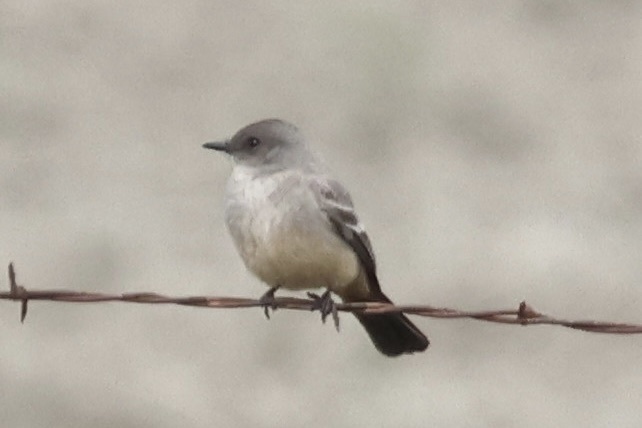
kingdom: Animalia
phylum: Chordata
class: Aves
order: Passeriformes
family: Tyrannidae
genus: Sayornis
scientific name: Sayornis saya
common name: Say's phoebe
